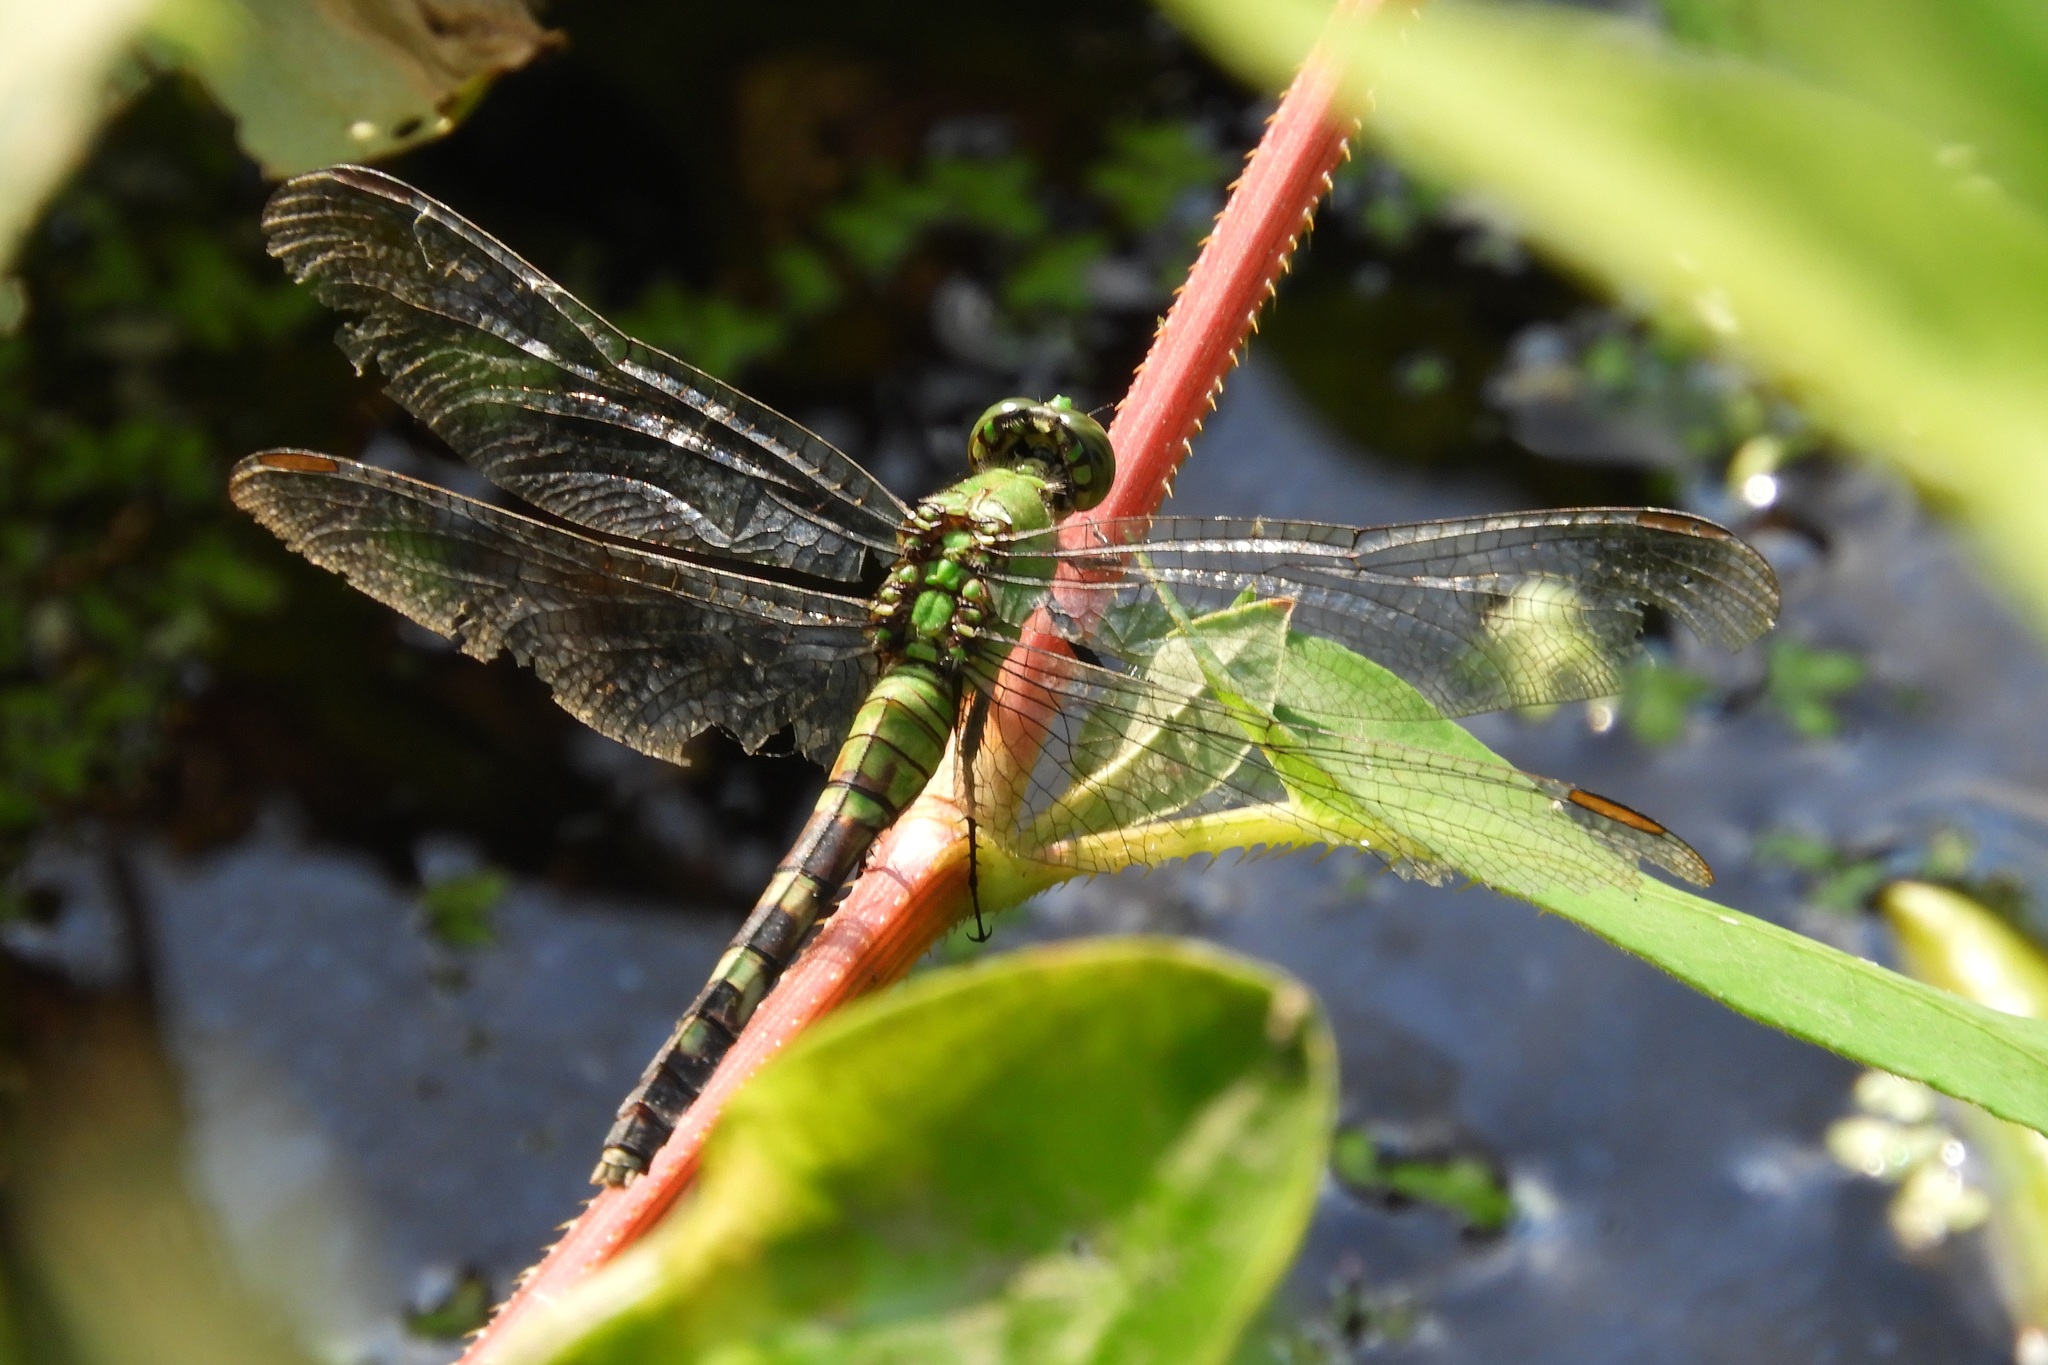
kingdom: Animalia
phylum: Arthropoda
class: Insecta
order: Odonata
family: Libellulidae
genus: Erythemis
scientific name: Erythemis simplicicollis
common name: Eastern pondhawk
